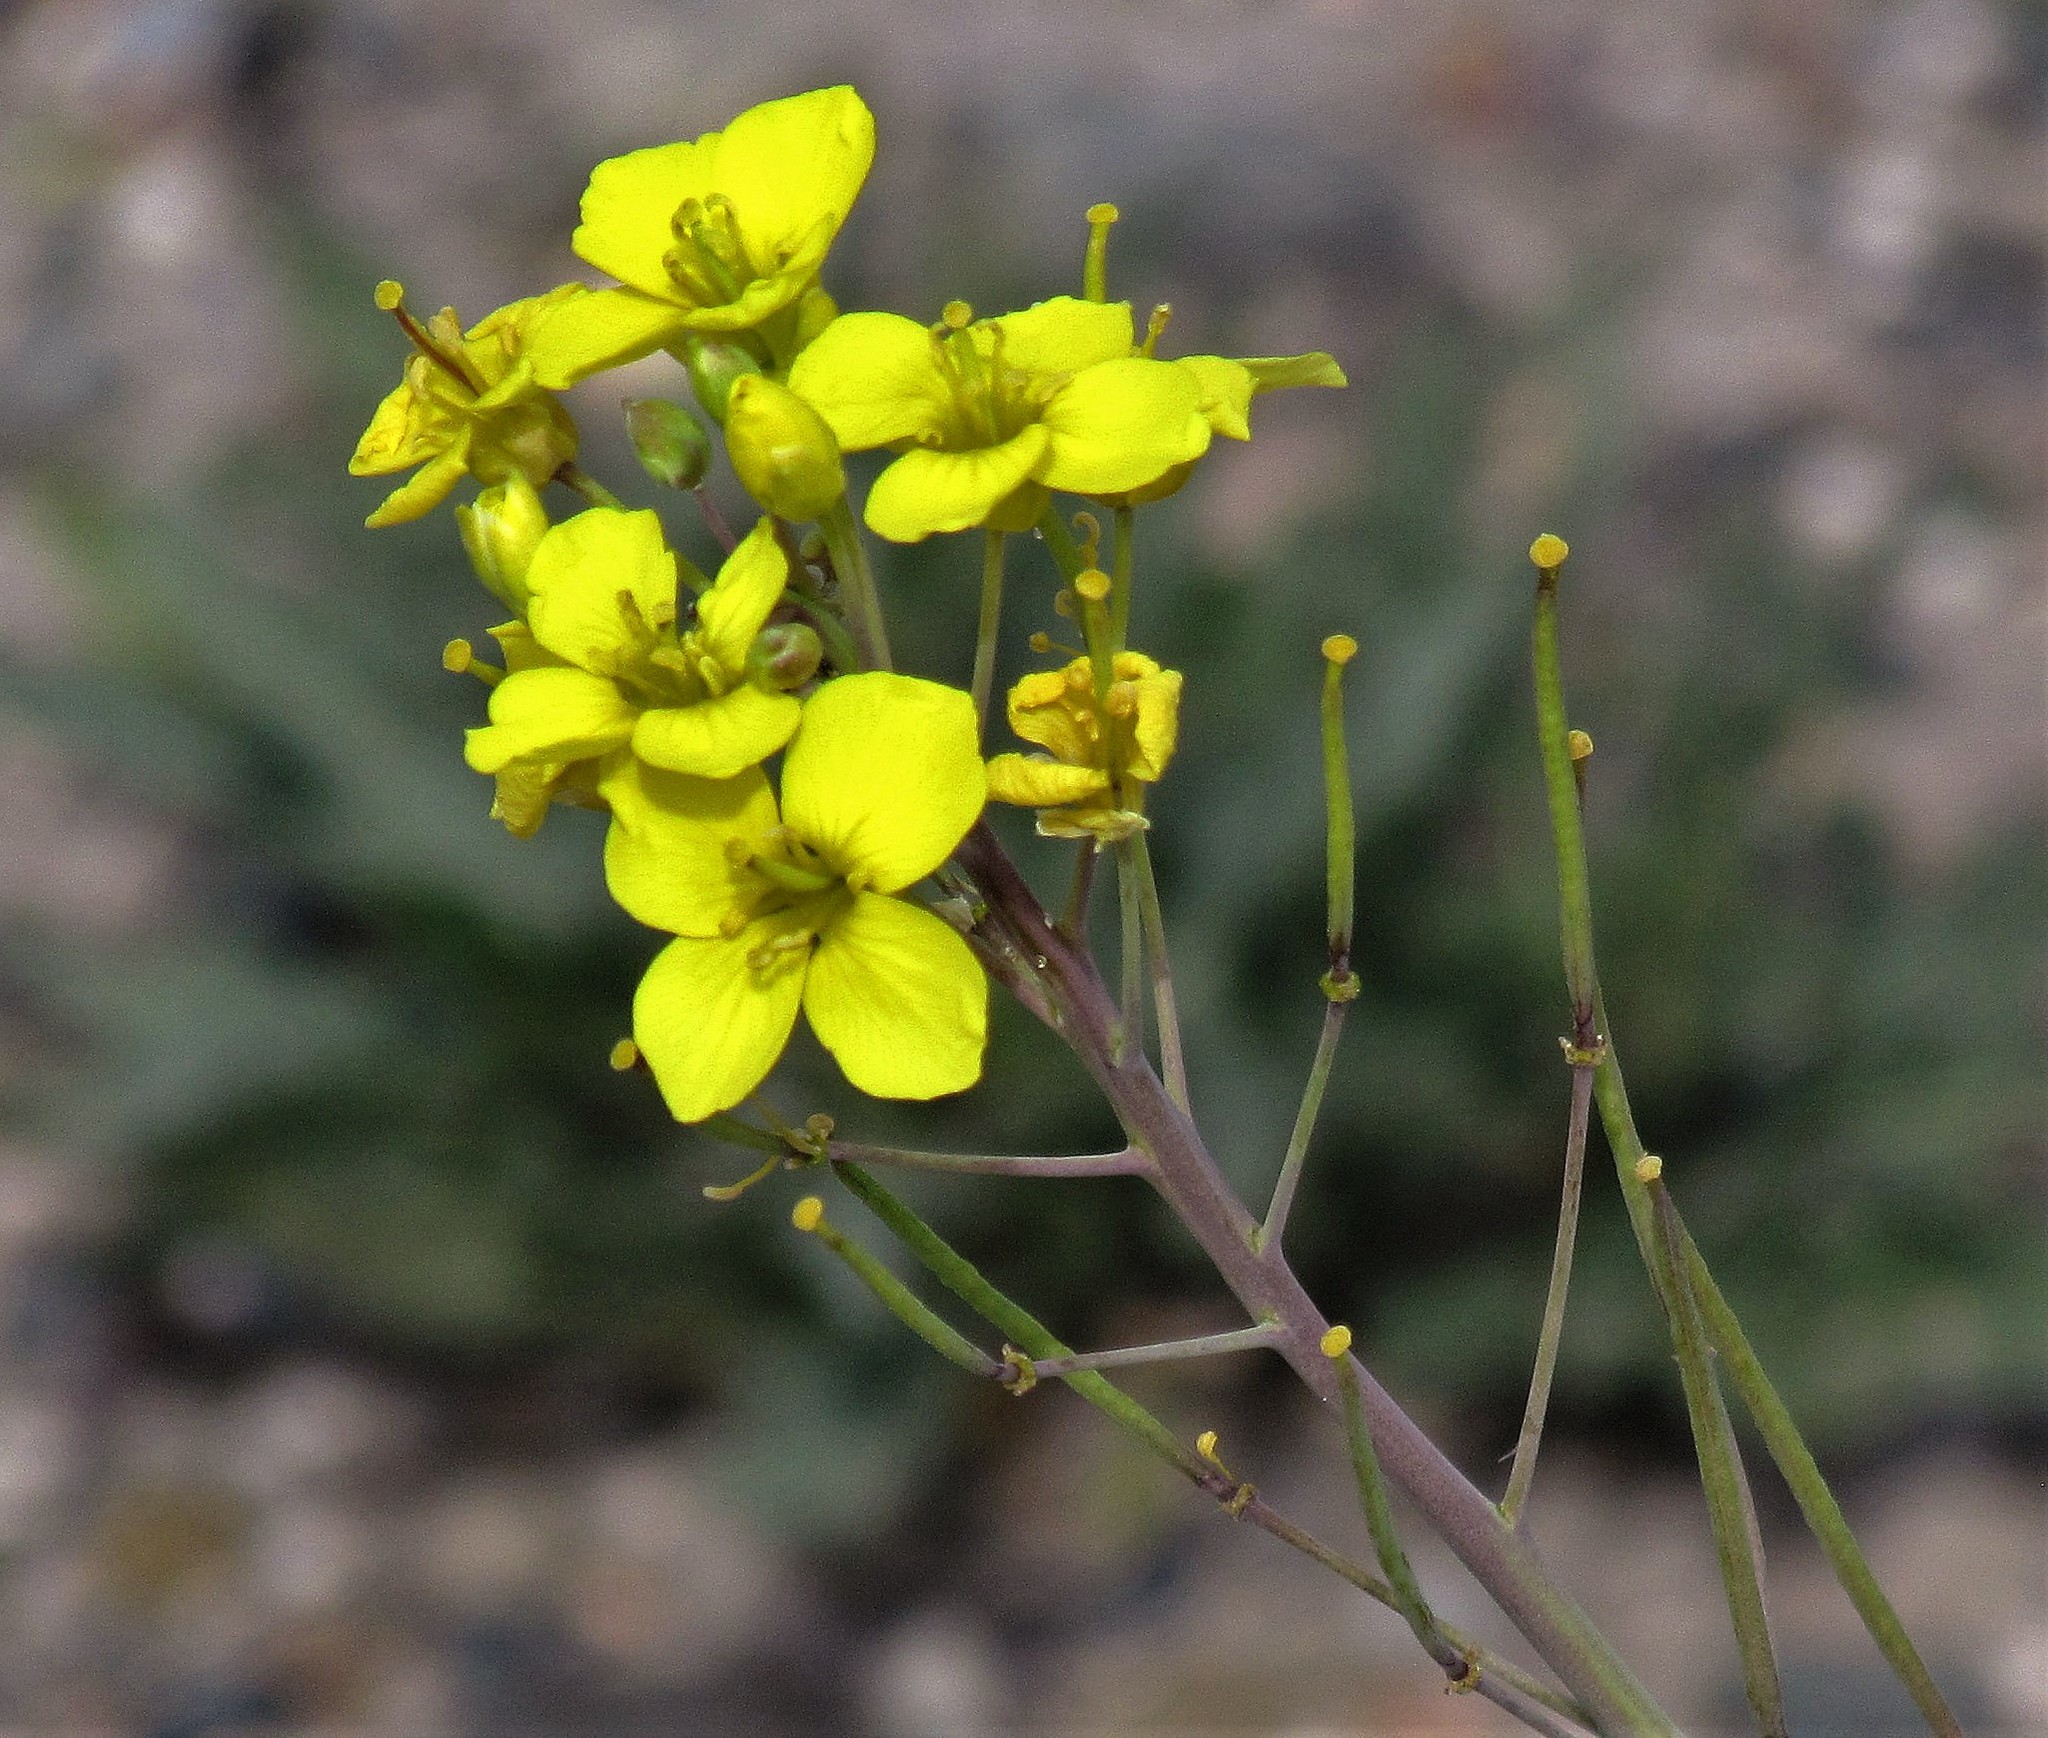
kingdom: Plantae
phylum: Tracheophyta
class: Magnoliopsida
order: Brassicales
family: Brassicaceae
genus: Diplotaxis
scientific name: Diplotaxis tenuifolia
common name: Perennial wall-rocket
